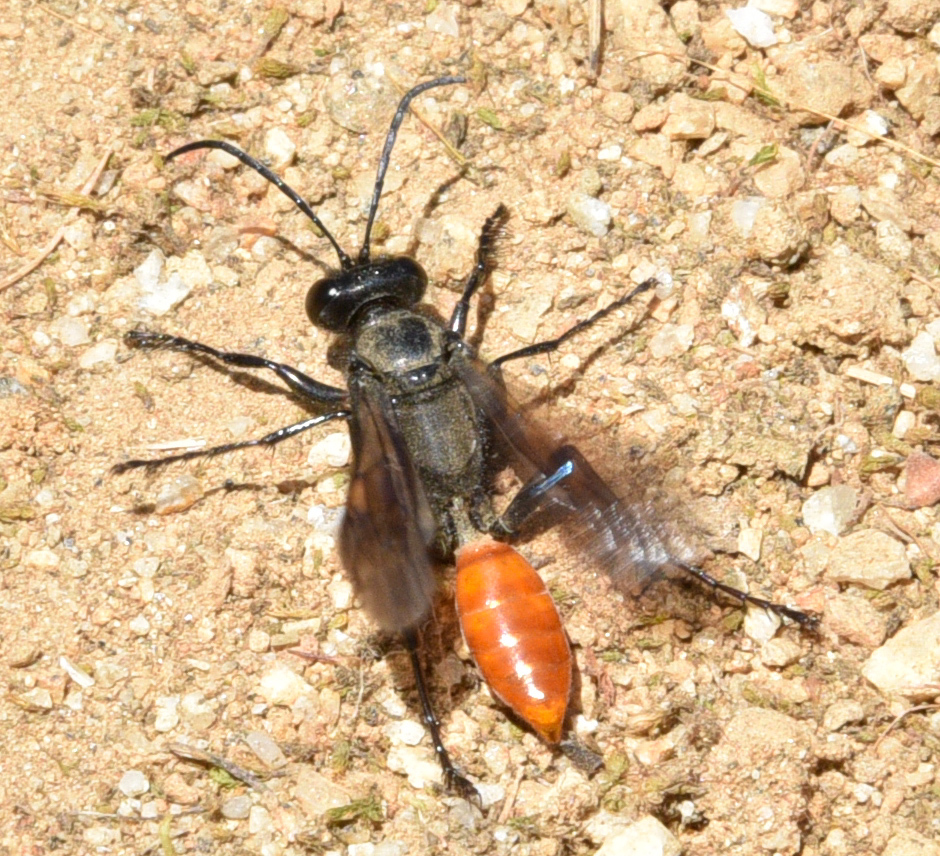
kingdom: Animalia
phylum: Arthropoda
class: Insecta
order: Hymenoptera
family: Sphecidae
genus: Sphex
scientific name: Sphex lucae
